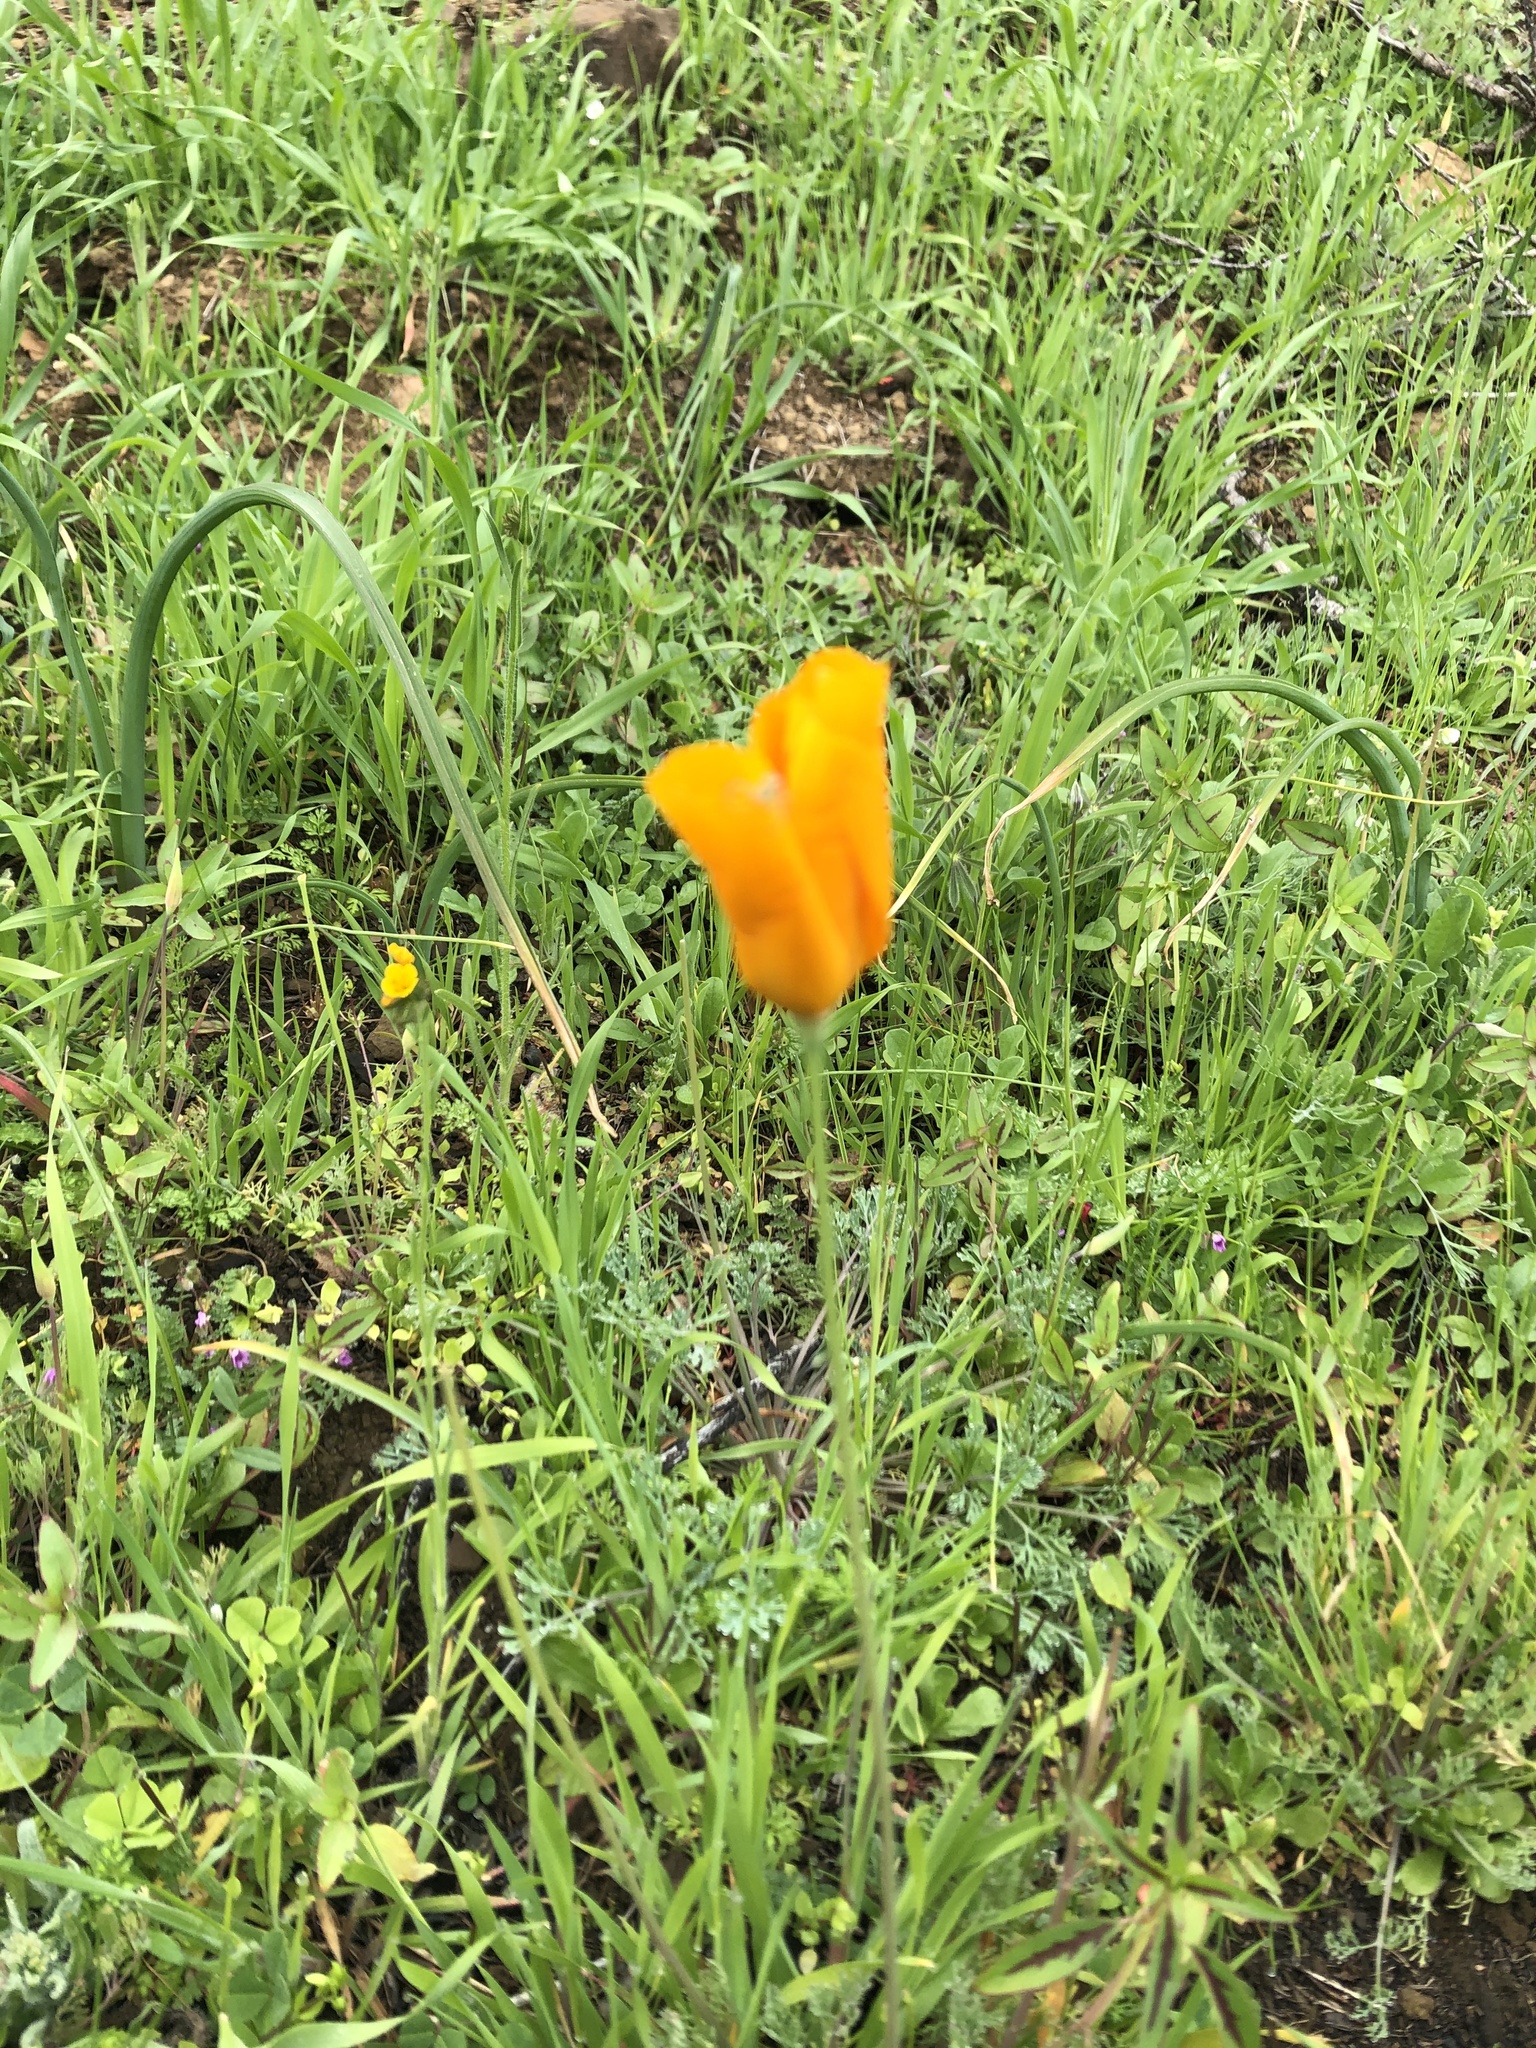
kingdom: Plantae
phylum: Tracheophyta
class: Magnoliopsida
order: Ranunculales
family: Papaveraceae
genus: Eschscholzia
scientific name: Eschscholzia californica
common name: California poppy
